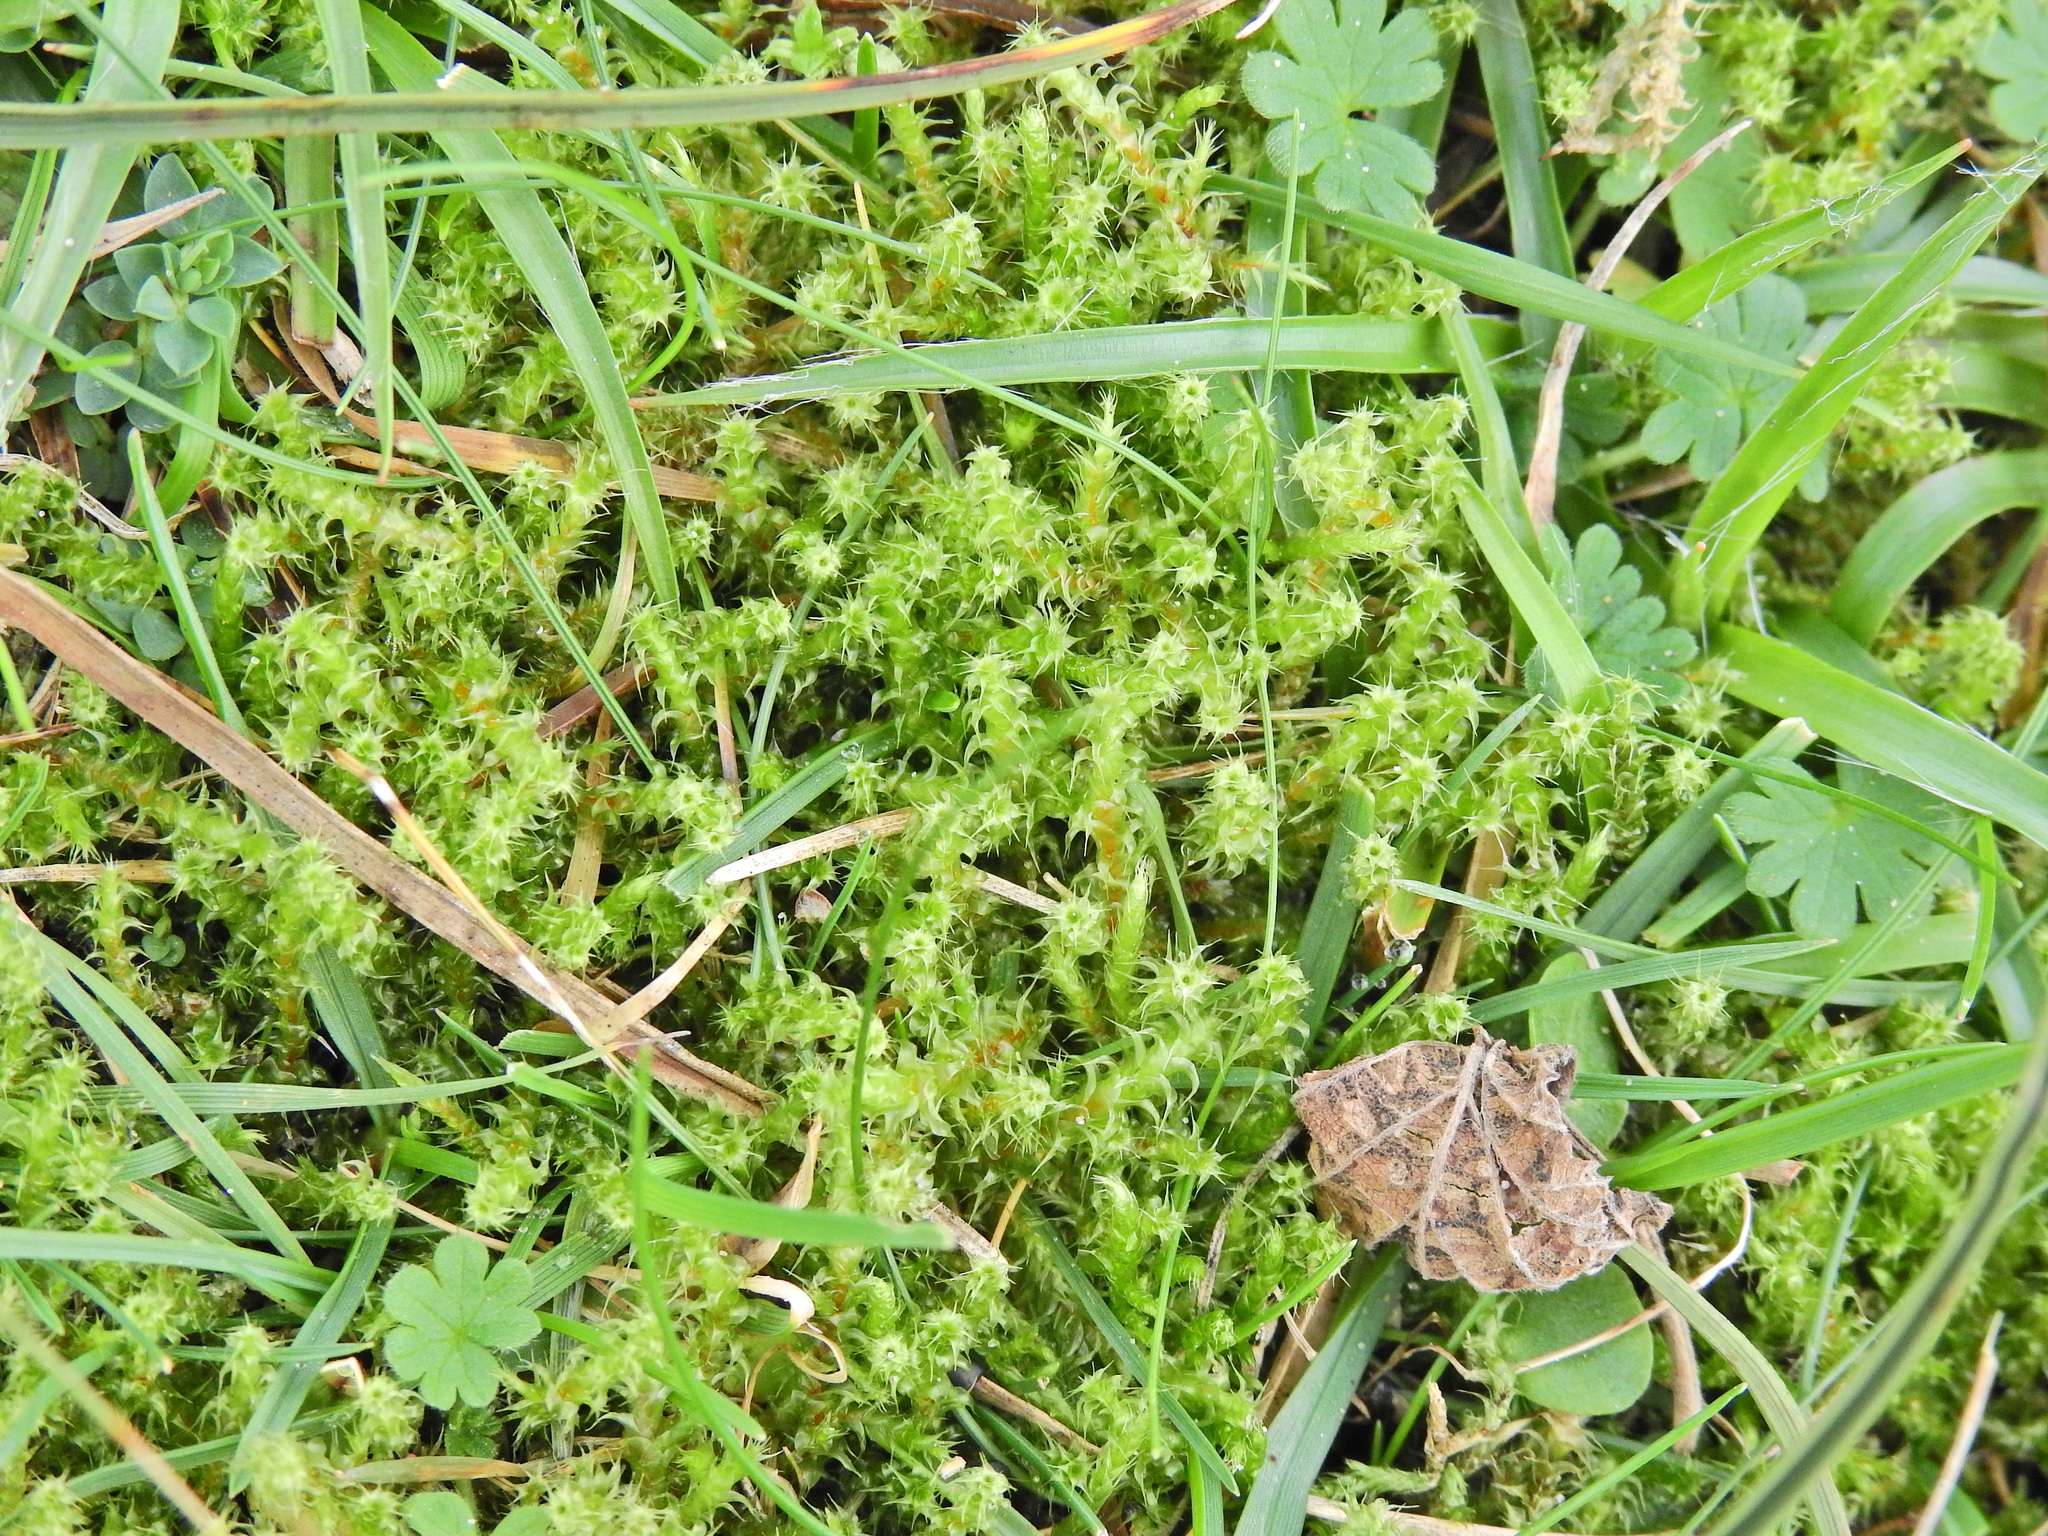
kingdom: Plantae
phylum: Bryophyta
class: Bryopsida
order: Hypnales
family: Hylocomiaceae
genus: Rhytidiadelphus
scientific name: Rhytidiadelphus squarrosus
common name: Springy turf-moss
